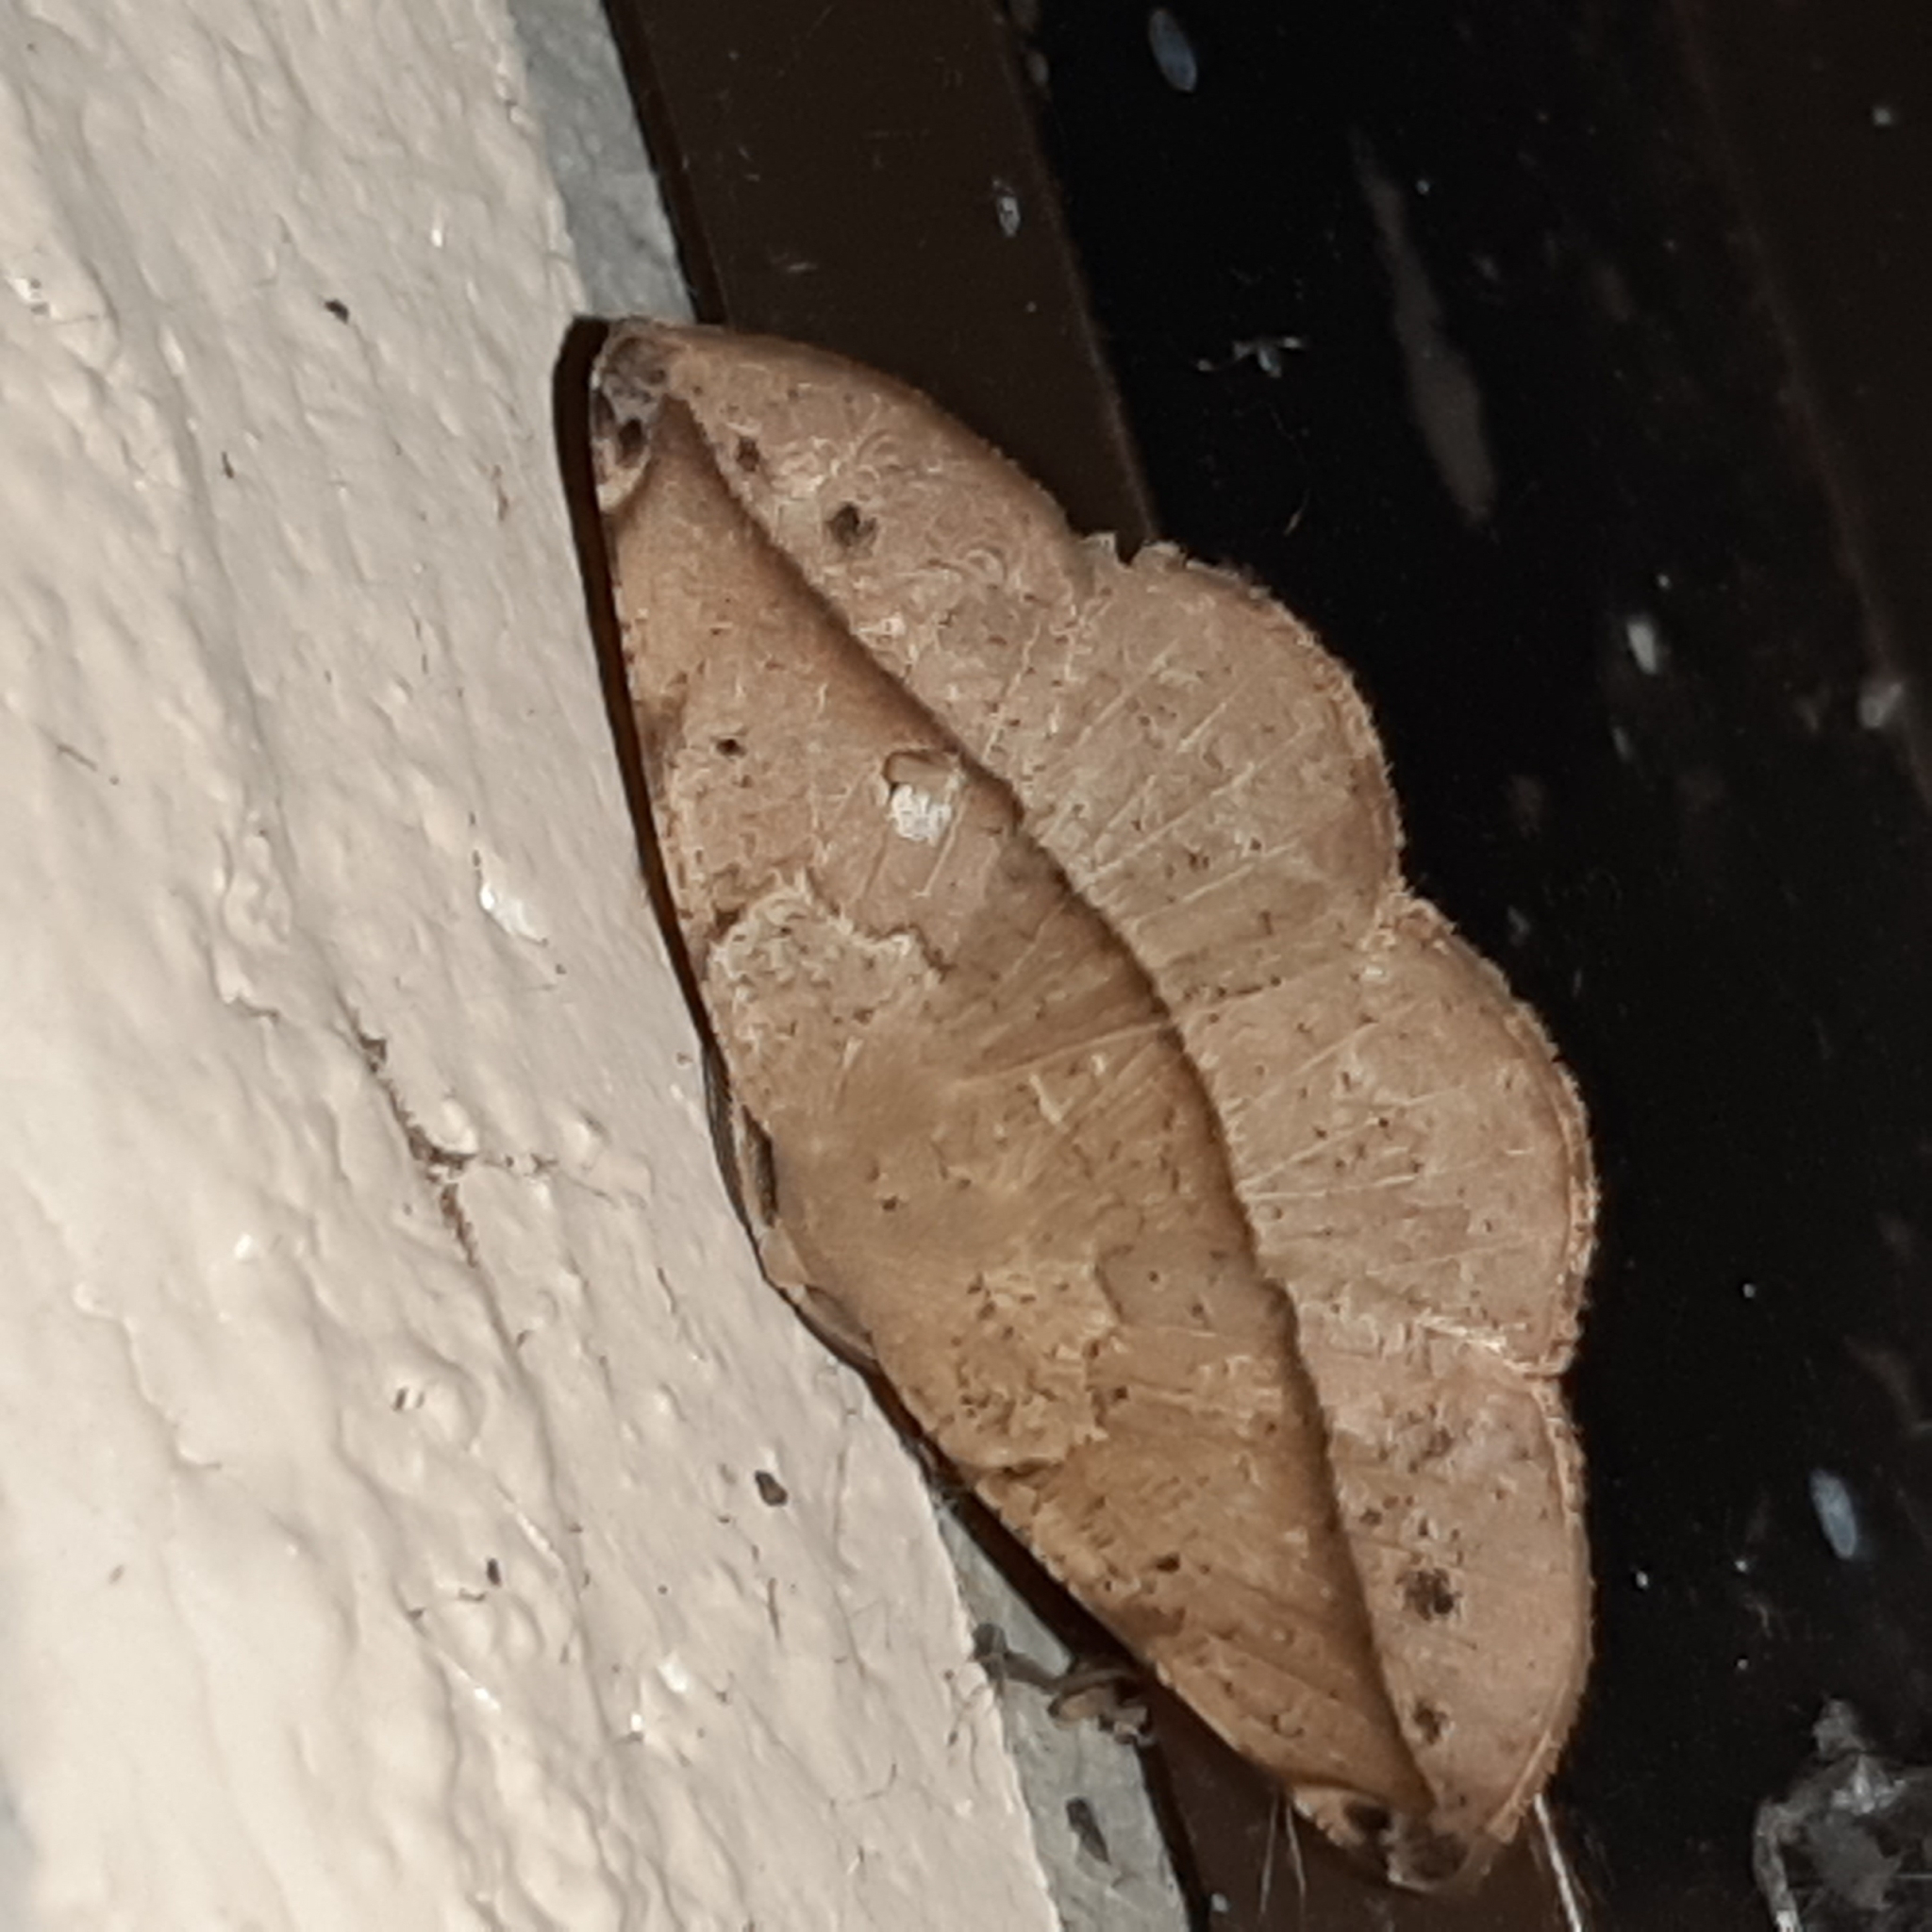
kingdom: Animalia
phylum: Arthropoda
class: Insecta
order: Lepidoptera
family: Geometridae
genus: Eusarca
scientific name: Eusarca cayennaria
